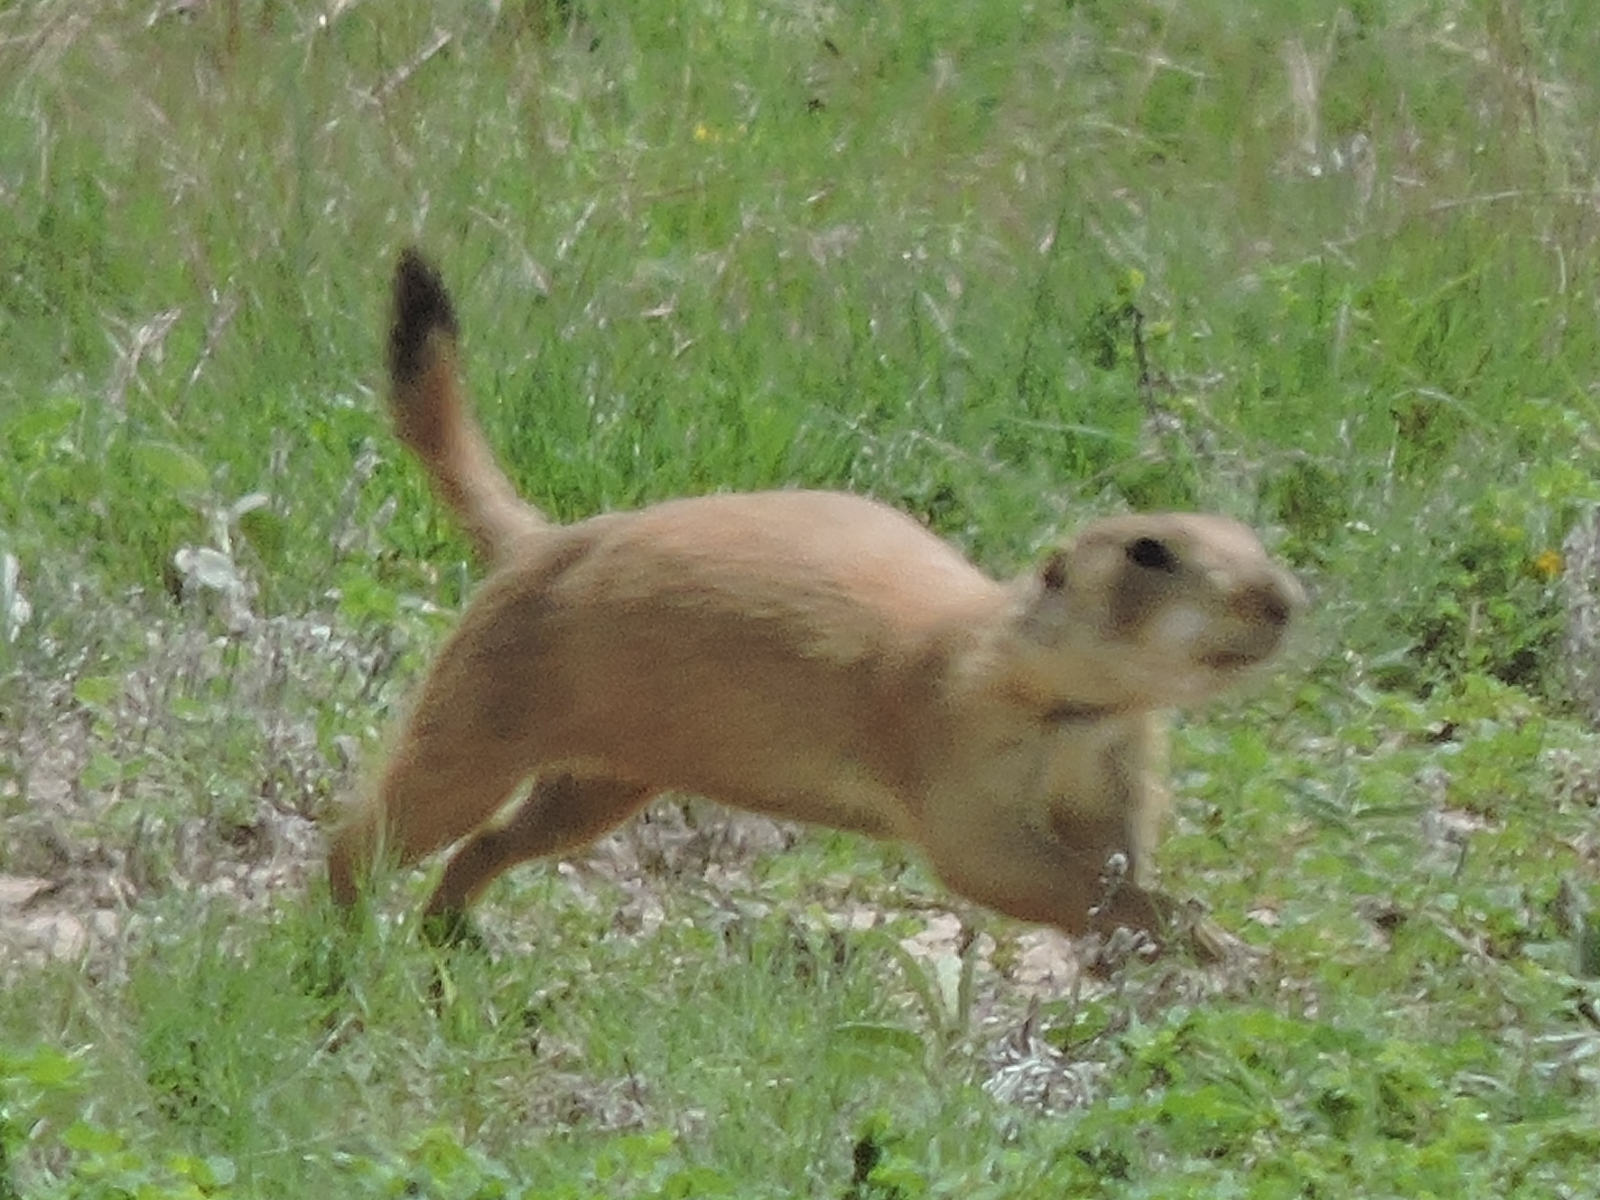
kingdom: Animalia
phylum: Chordata
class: Mammalia
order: Rodentia
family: Sciuridae
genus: Cynomys
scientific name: Cynomys ludovicianus
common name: Black-tailed prairie dog
